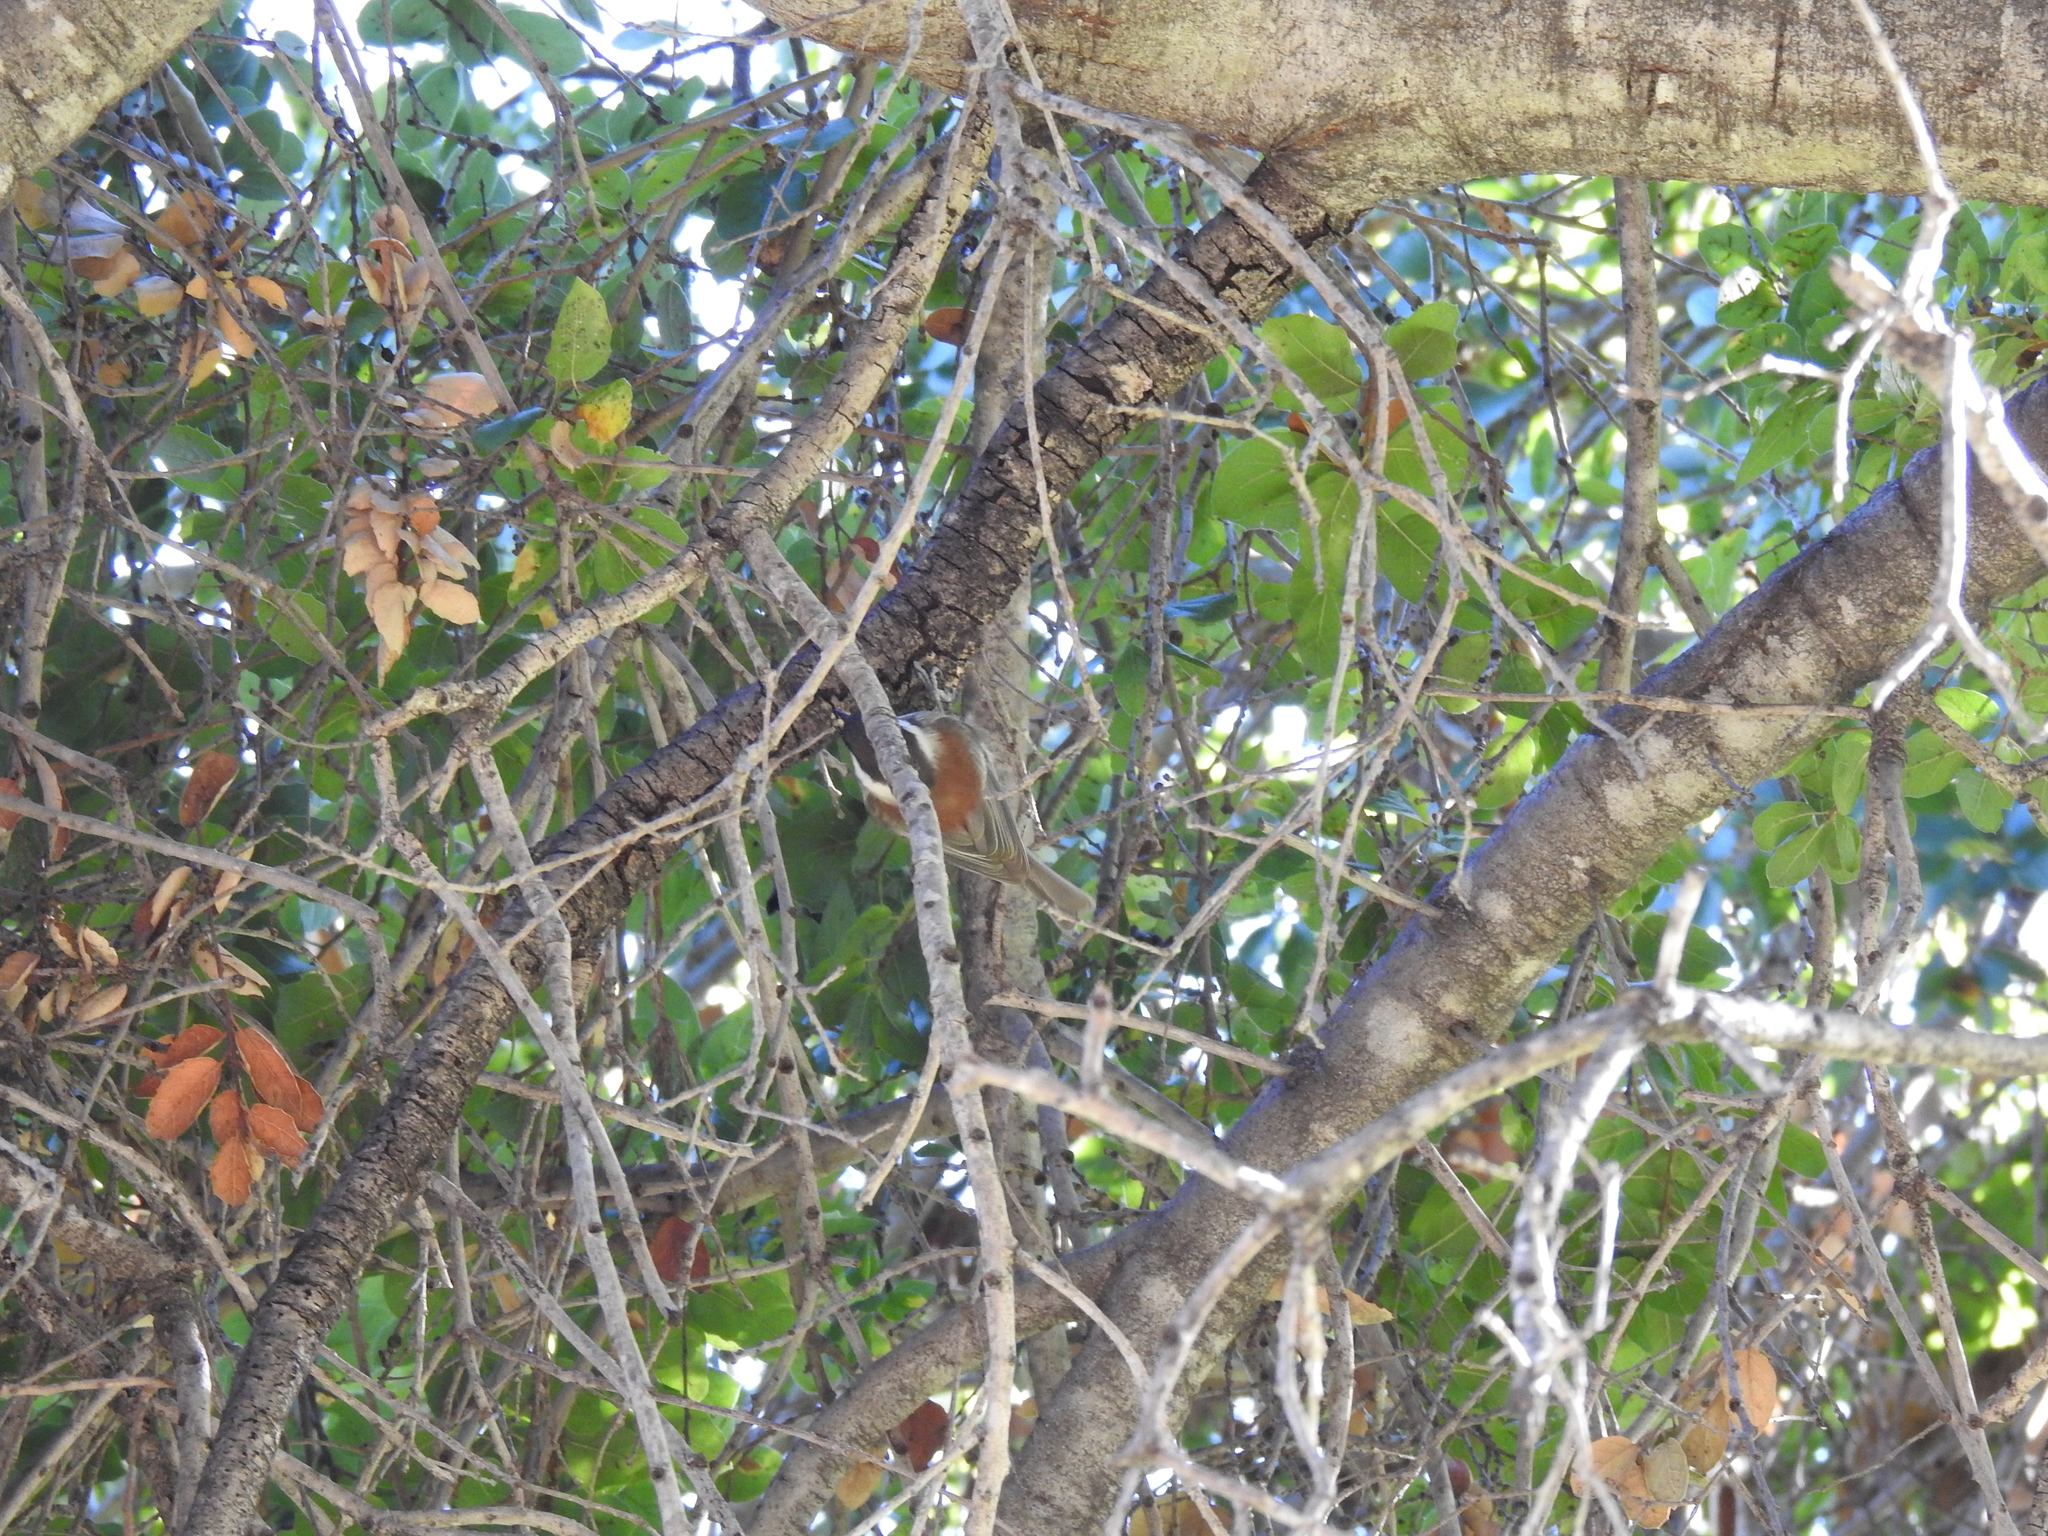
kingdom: Animalia
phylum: Chordata
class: Aves
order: Passeriformes
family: Paridae
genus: Poecile
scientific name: Poecile rufescens
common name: Chestnut-backed chickadee
